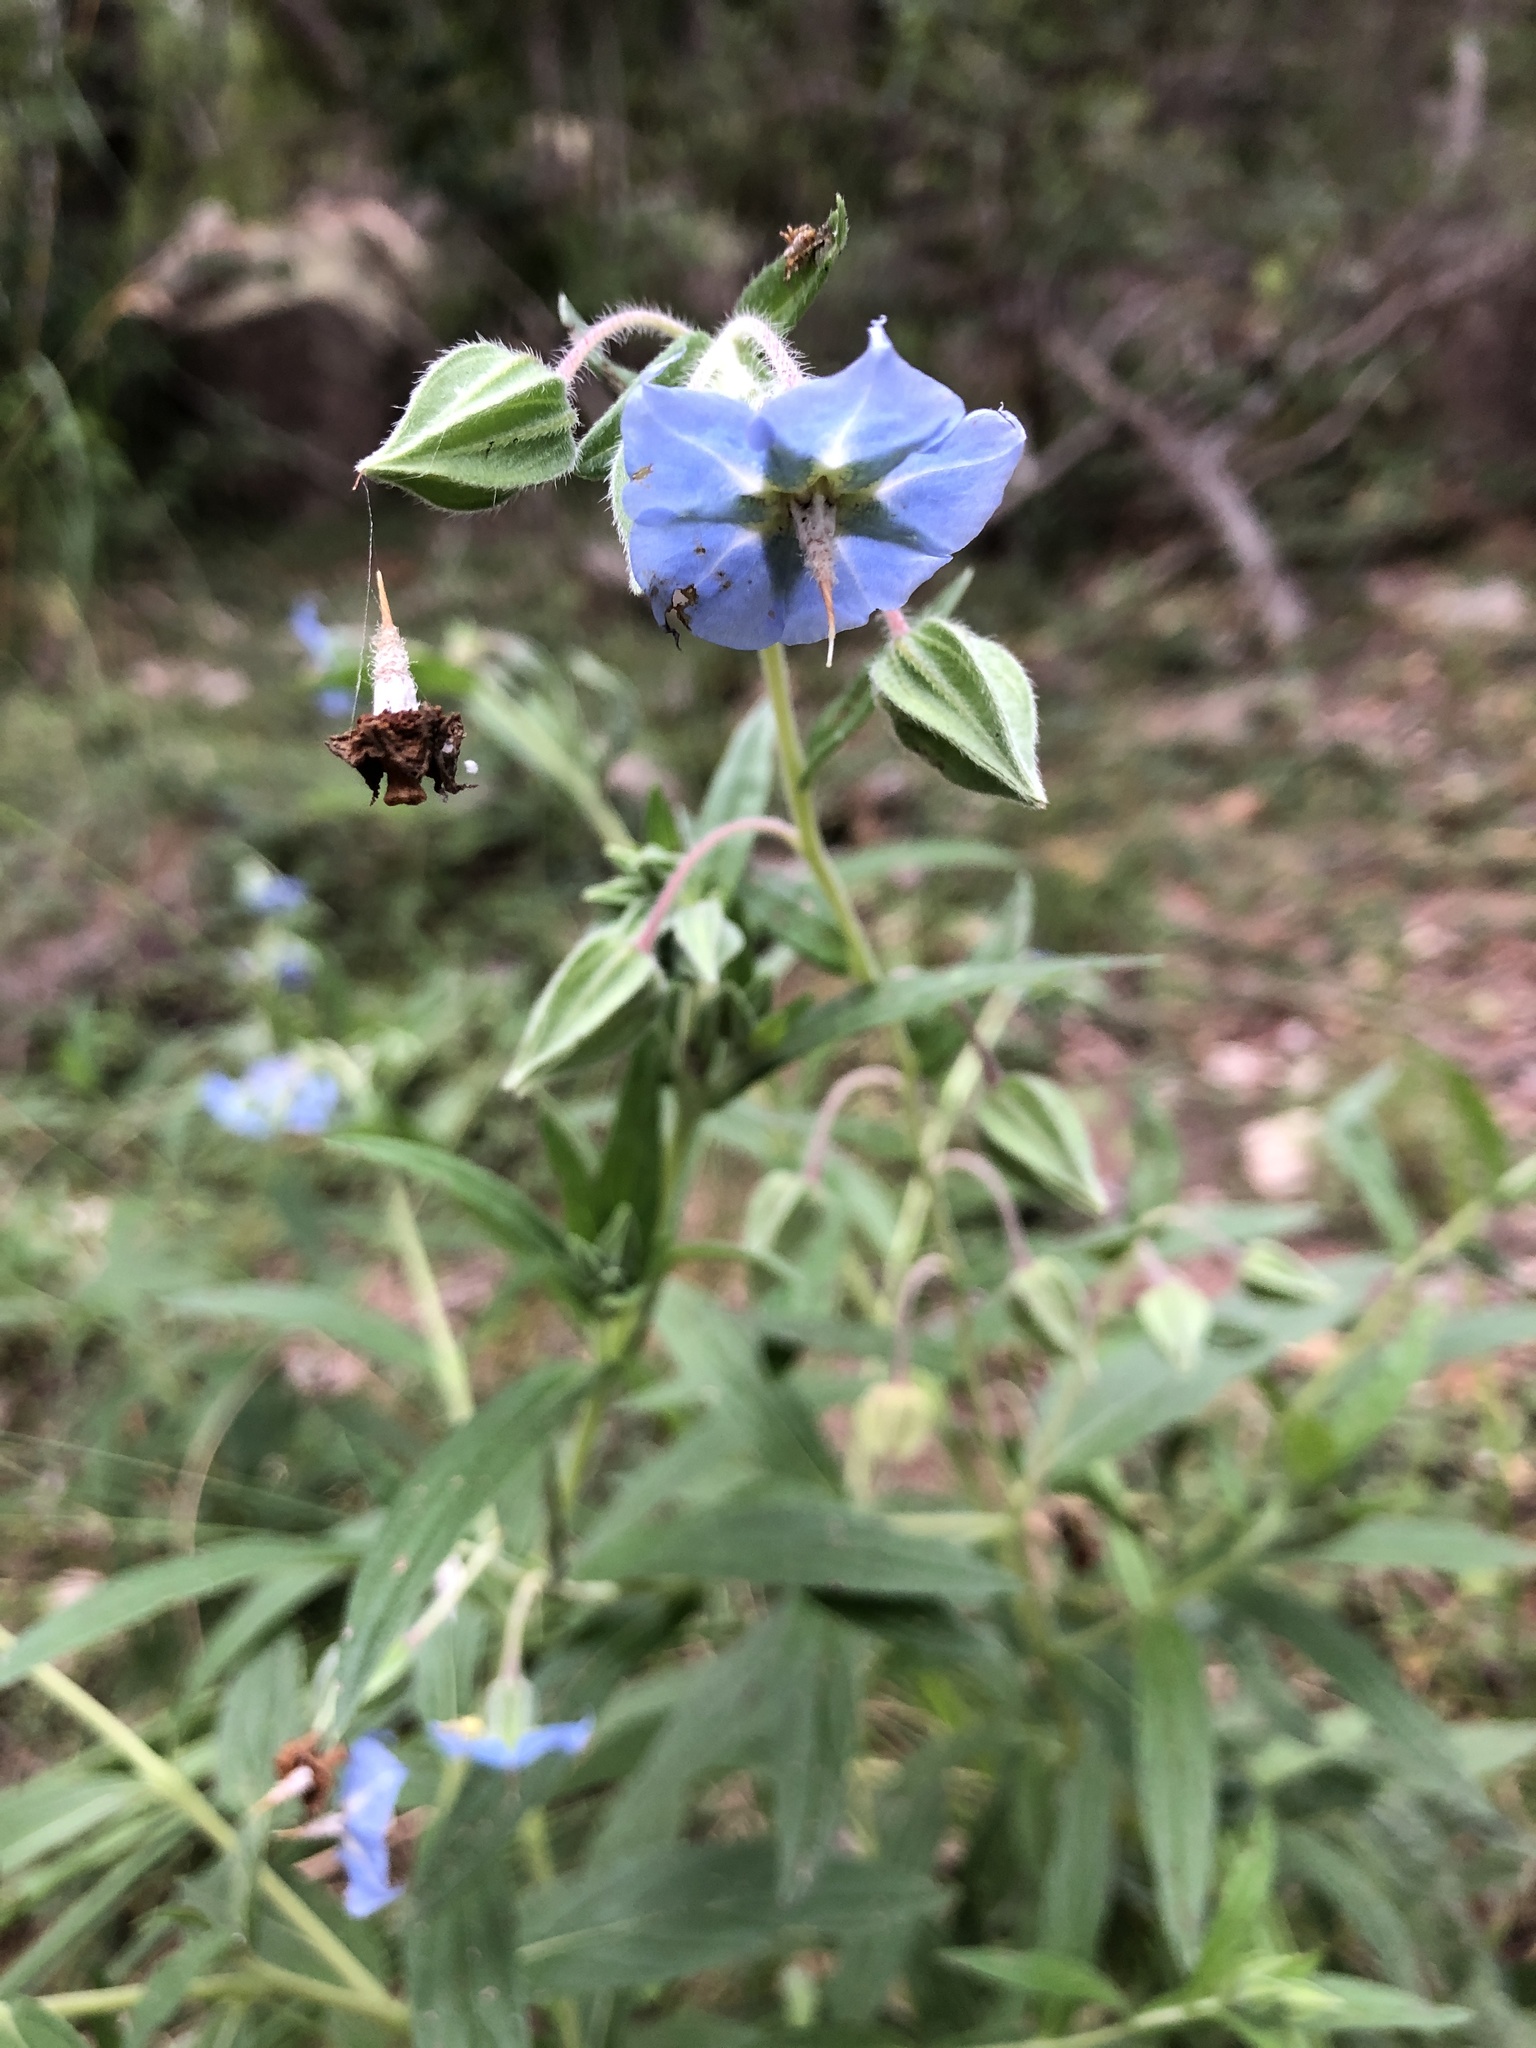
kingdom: Plantae
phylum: Tracheophyta
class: Magnoliopsida
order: Boraginales
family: Boraginaceae
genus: Trichodesma
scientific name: Trichodesma zeylanicum
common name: Camelbush
